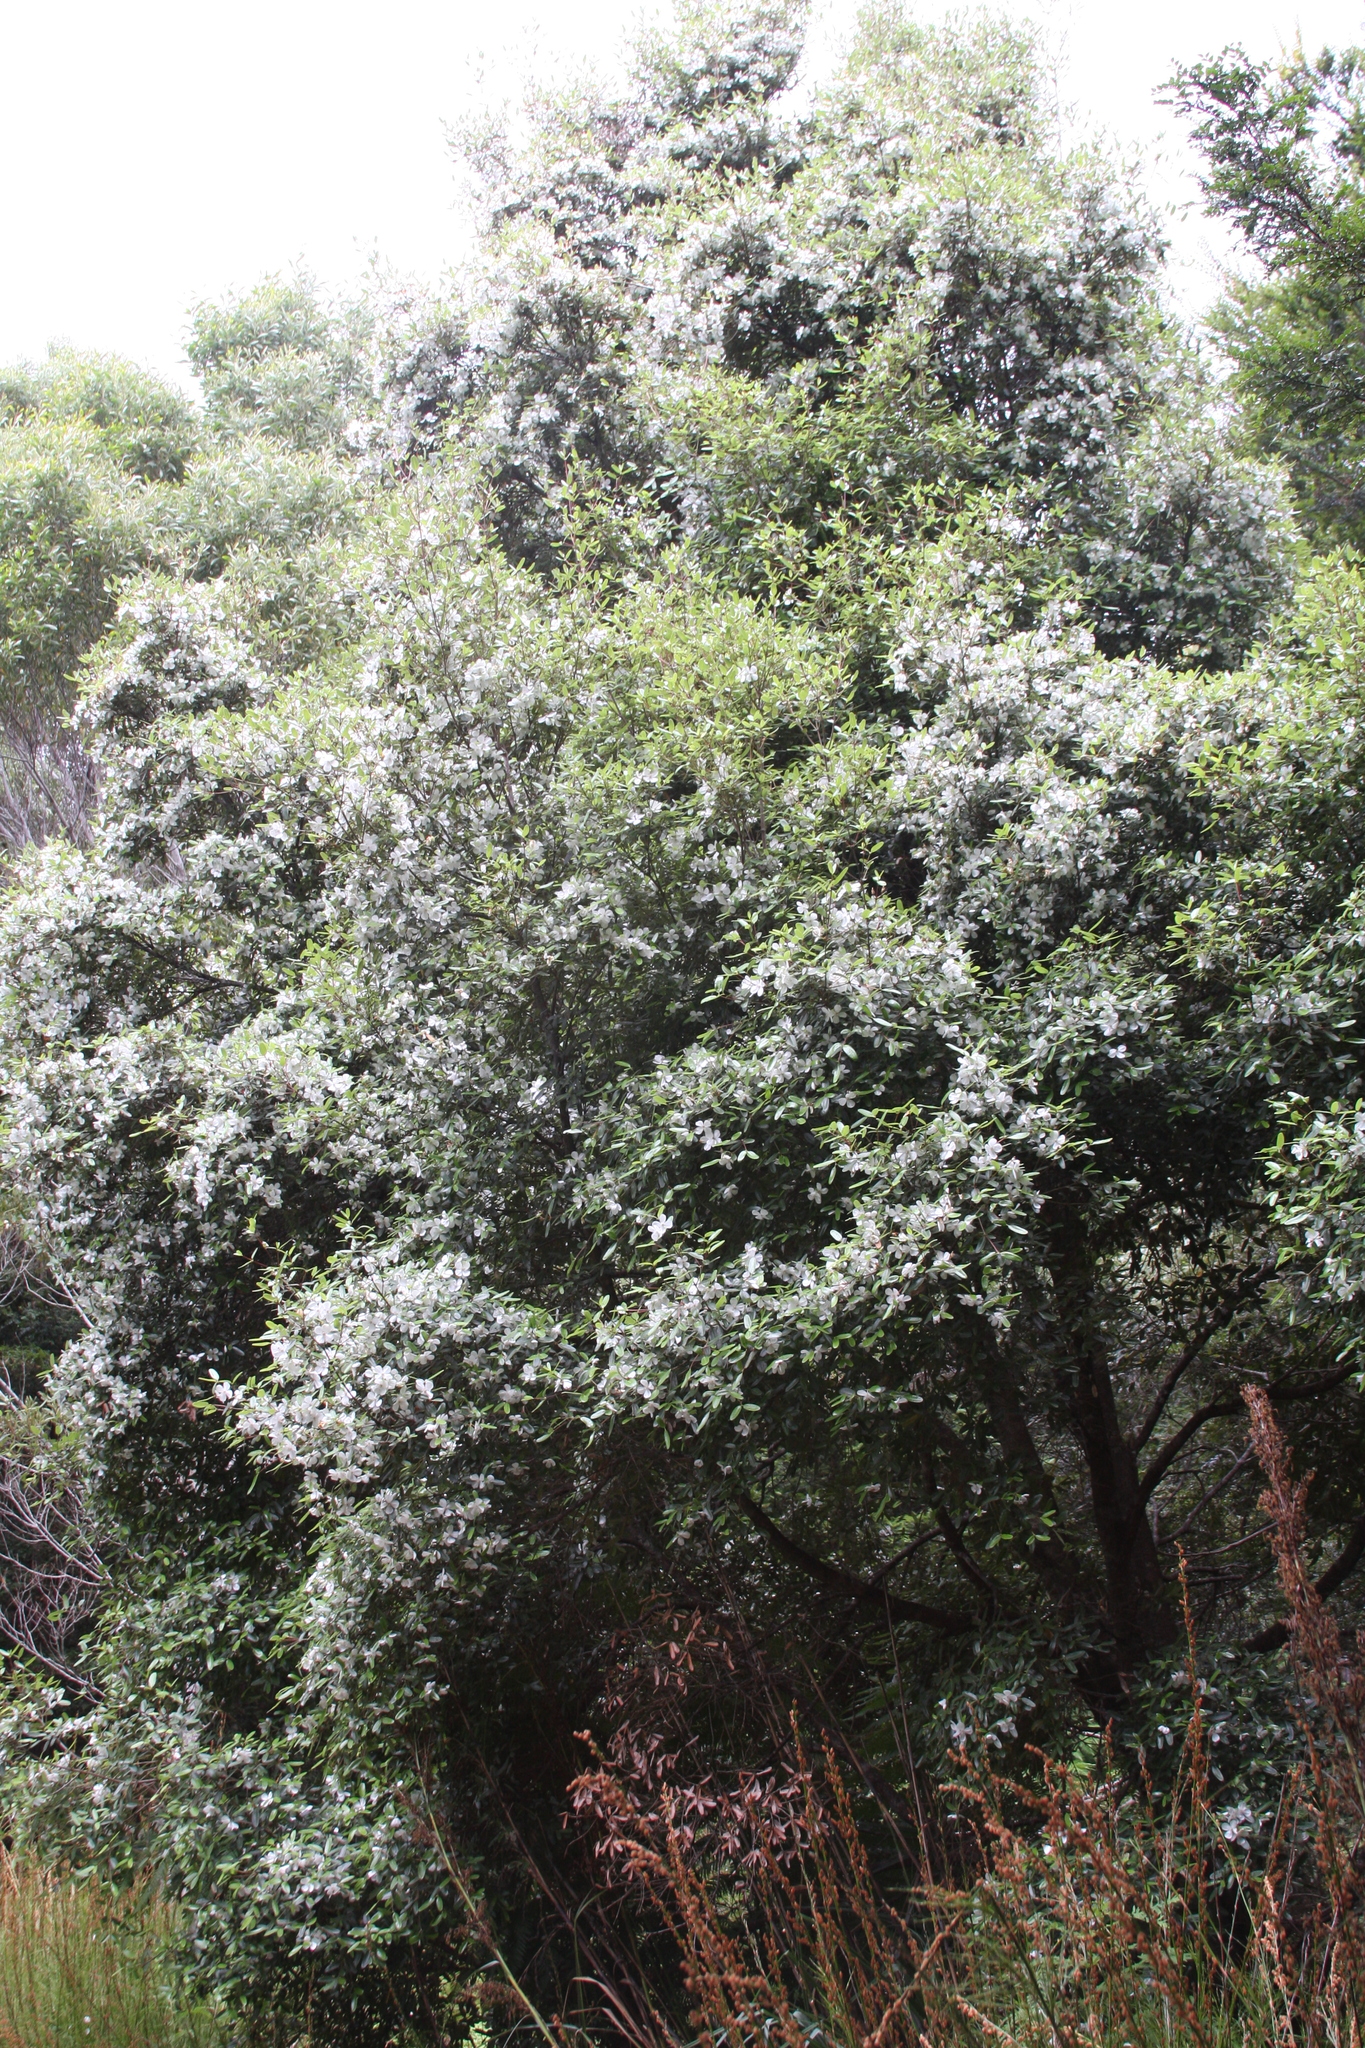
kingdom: Plantae
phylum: Tracheophyta
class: Magnoliopsida
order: Oxalidales
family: Cunoniaceae
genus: Eucryphia
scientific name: Eucryphia lucida
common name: Leatherwood
